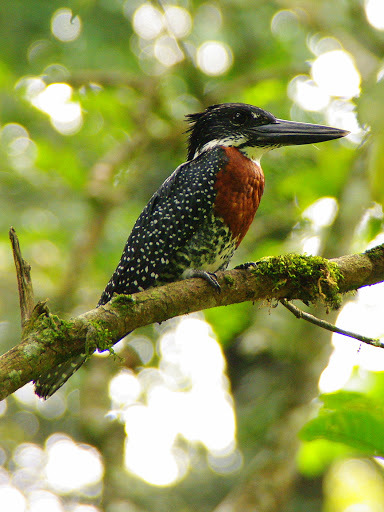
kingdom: Animalia
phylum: Chordata
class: Aves
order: Coraciiformes
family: Alcedinidae
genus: Megaceryle
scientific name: Megaceryle maxima
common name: Giant kingfisher
